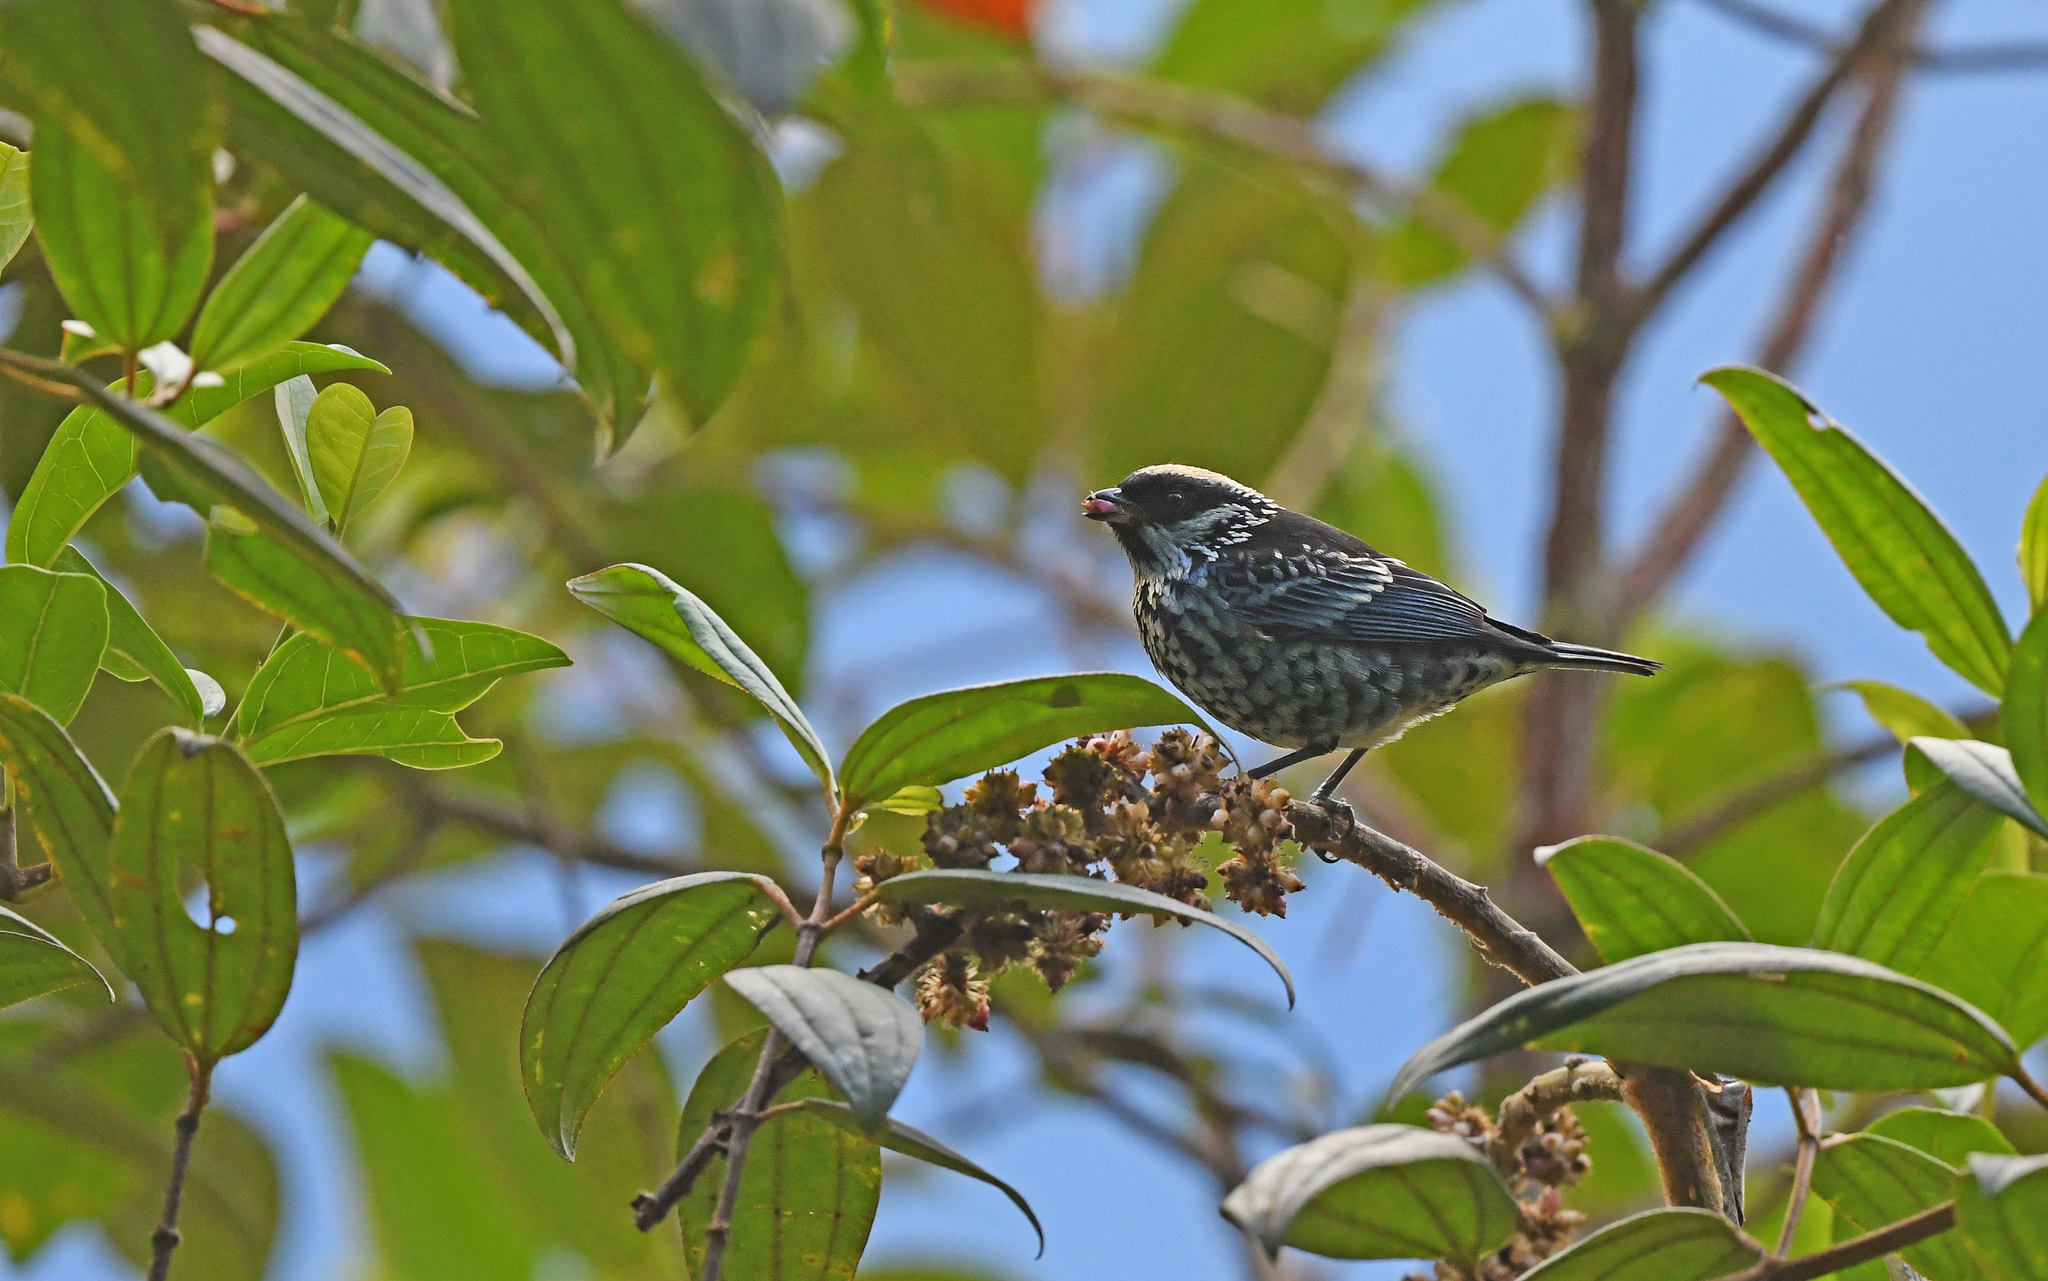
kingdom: Animalia
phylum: Chordata
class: Aves
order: Passeriformes
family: Thraupidae
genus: Tangara
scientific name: Tangara nigroviridis
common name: Beryl-spangled tanager
